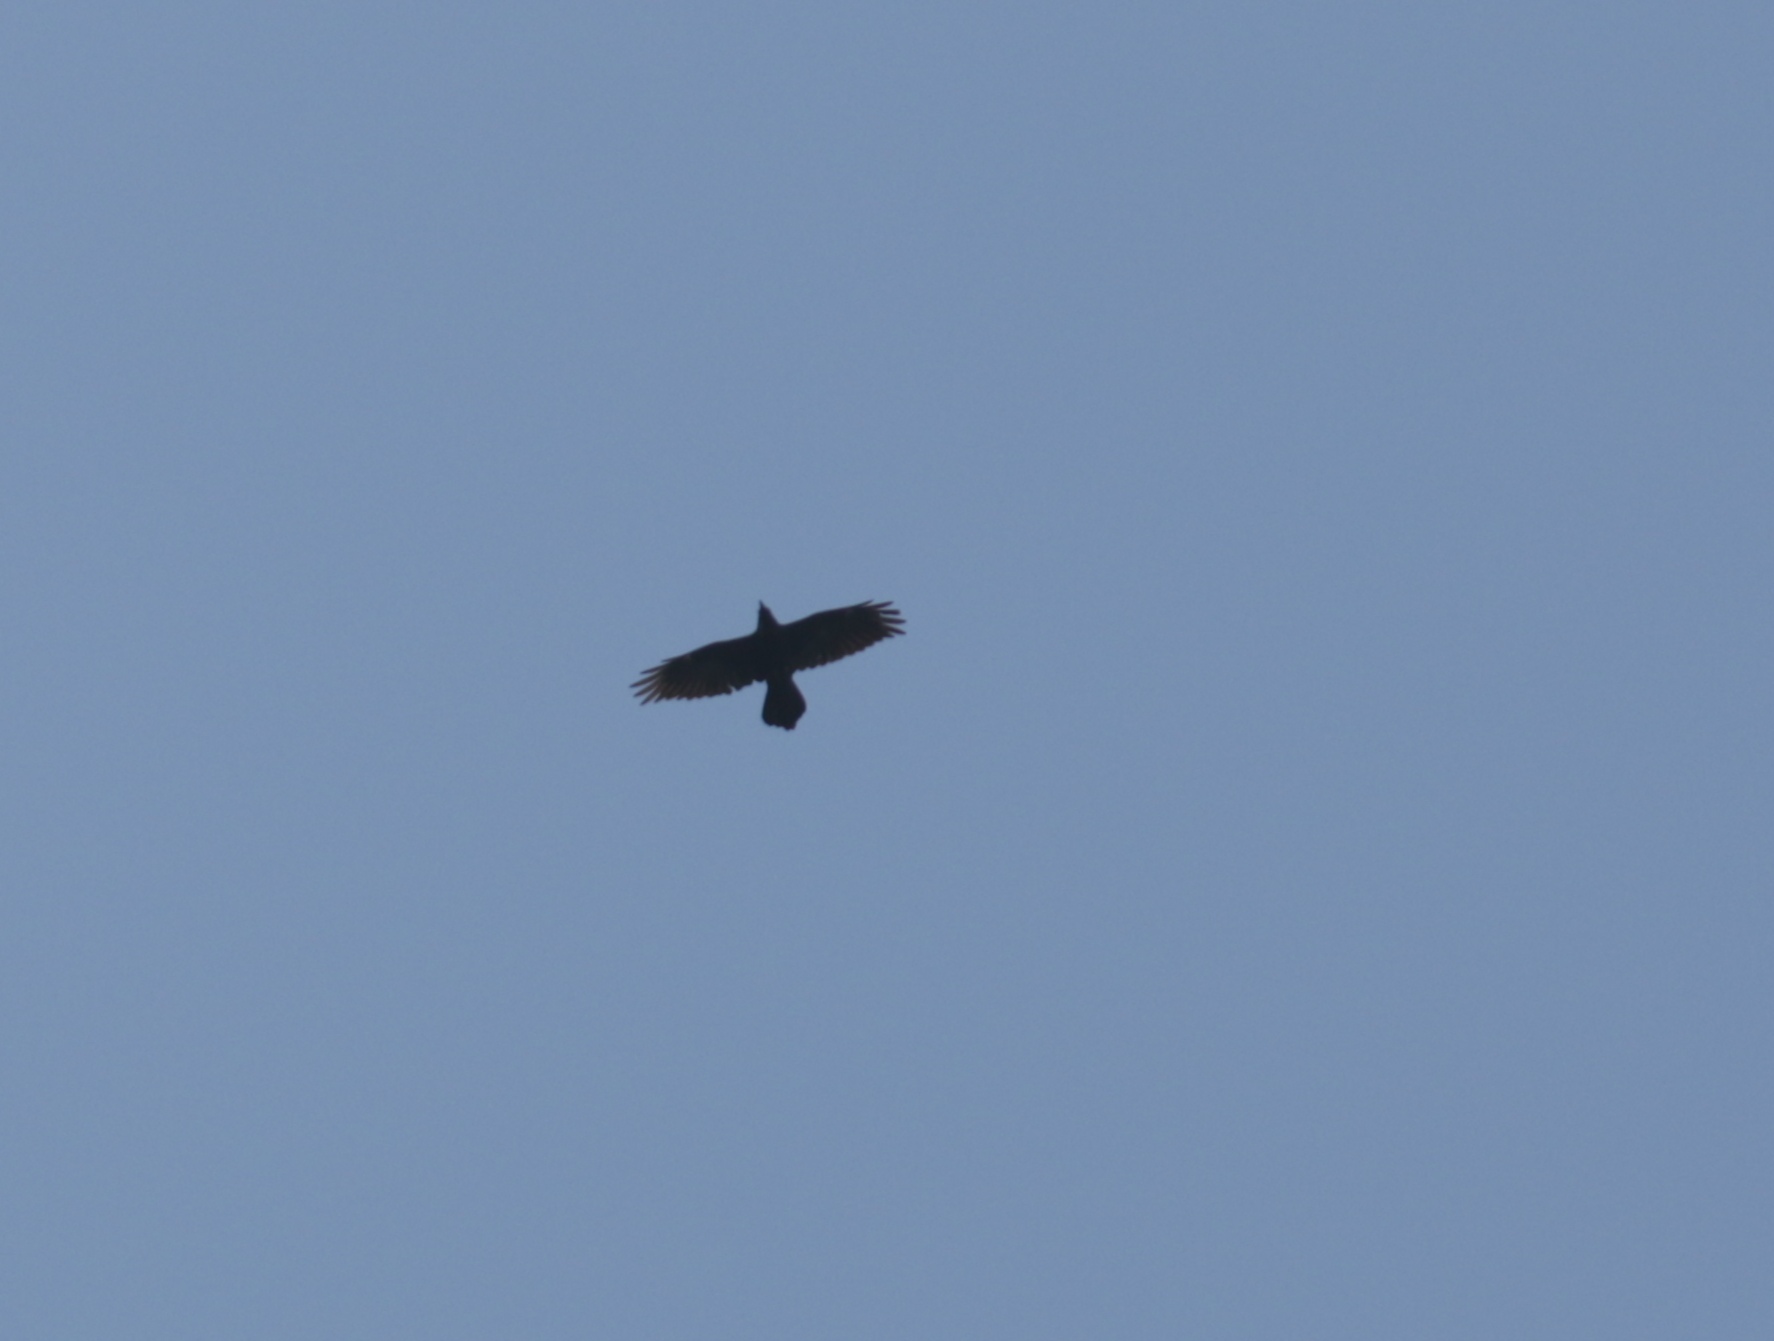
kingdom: Animalia
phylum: Chordata
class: Aves
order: Passeriformes
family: Corvidae
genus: Corvus
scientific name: Corvus corax
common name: Common raven
